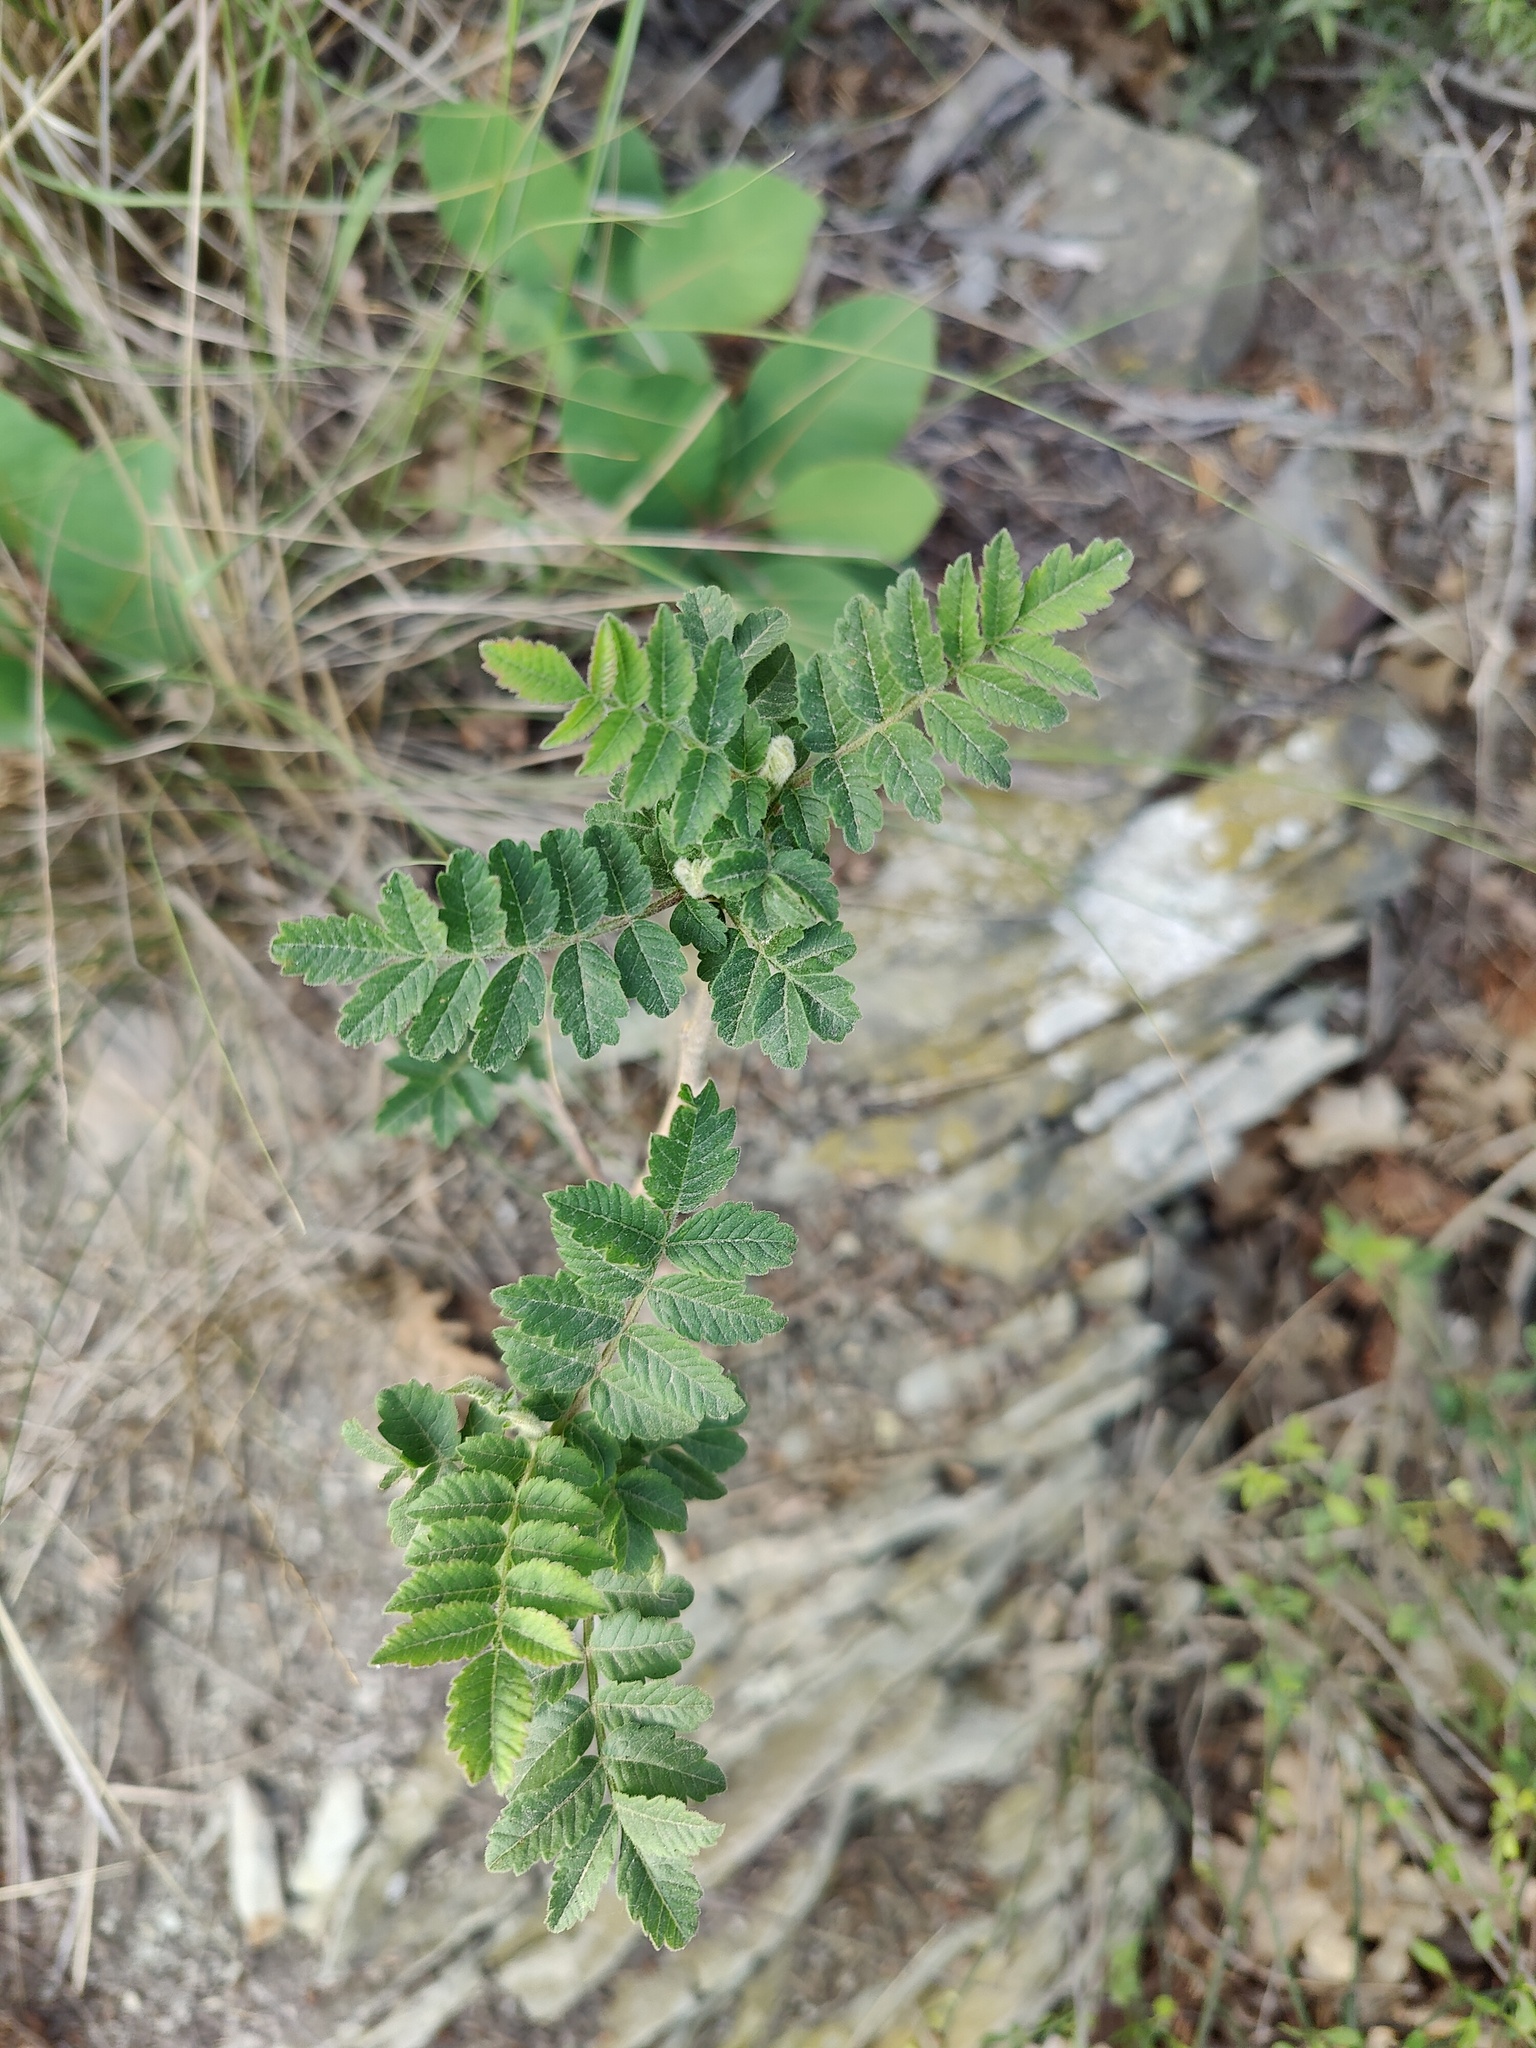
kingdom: Plantae
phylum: Tracheophyta
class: Magnoliopsida
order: Sapindales
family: Anacardiaceae
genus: Rhus
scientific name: Rhus coriaria
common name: Tanner's sumach
